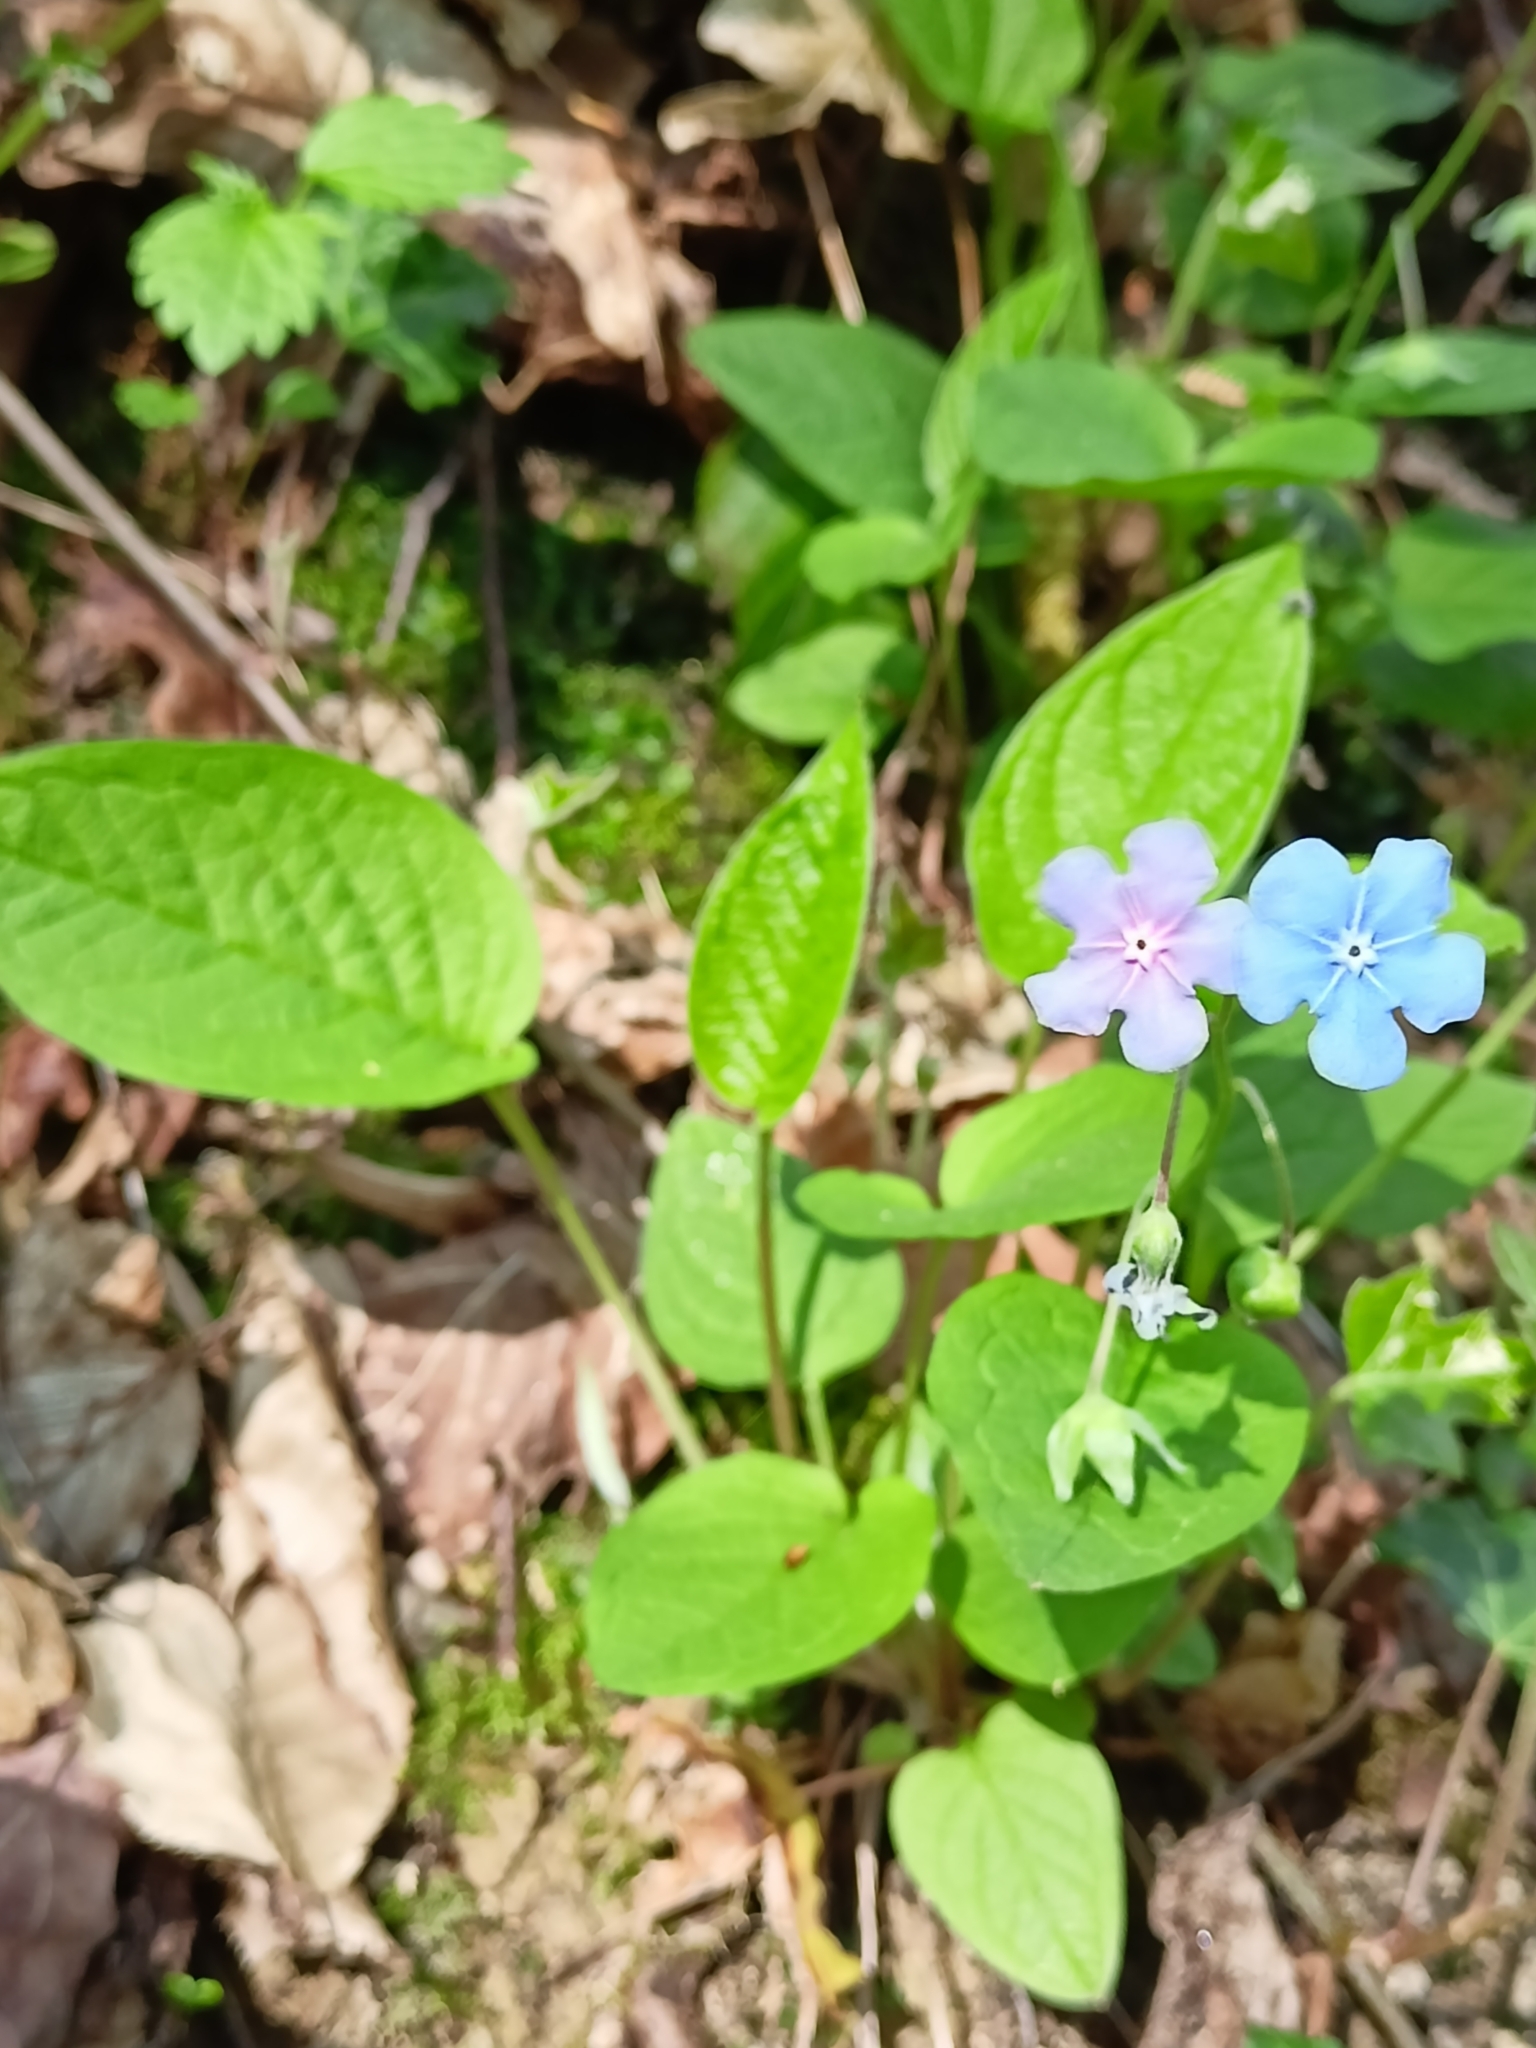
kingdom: Plantae
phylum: Tracheophyta
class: Magnoliopsida
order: Boraginales
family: Boraginaceae
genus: Omphalodes
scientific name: Omphalodes verna
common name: Blue-eyed-mary
